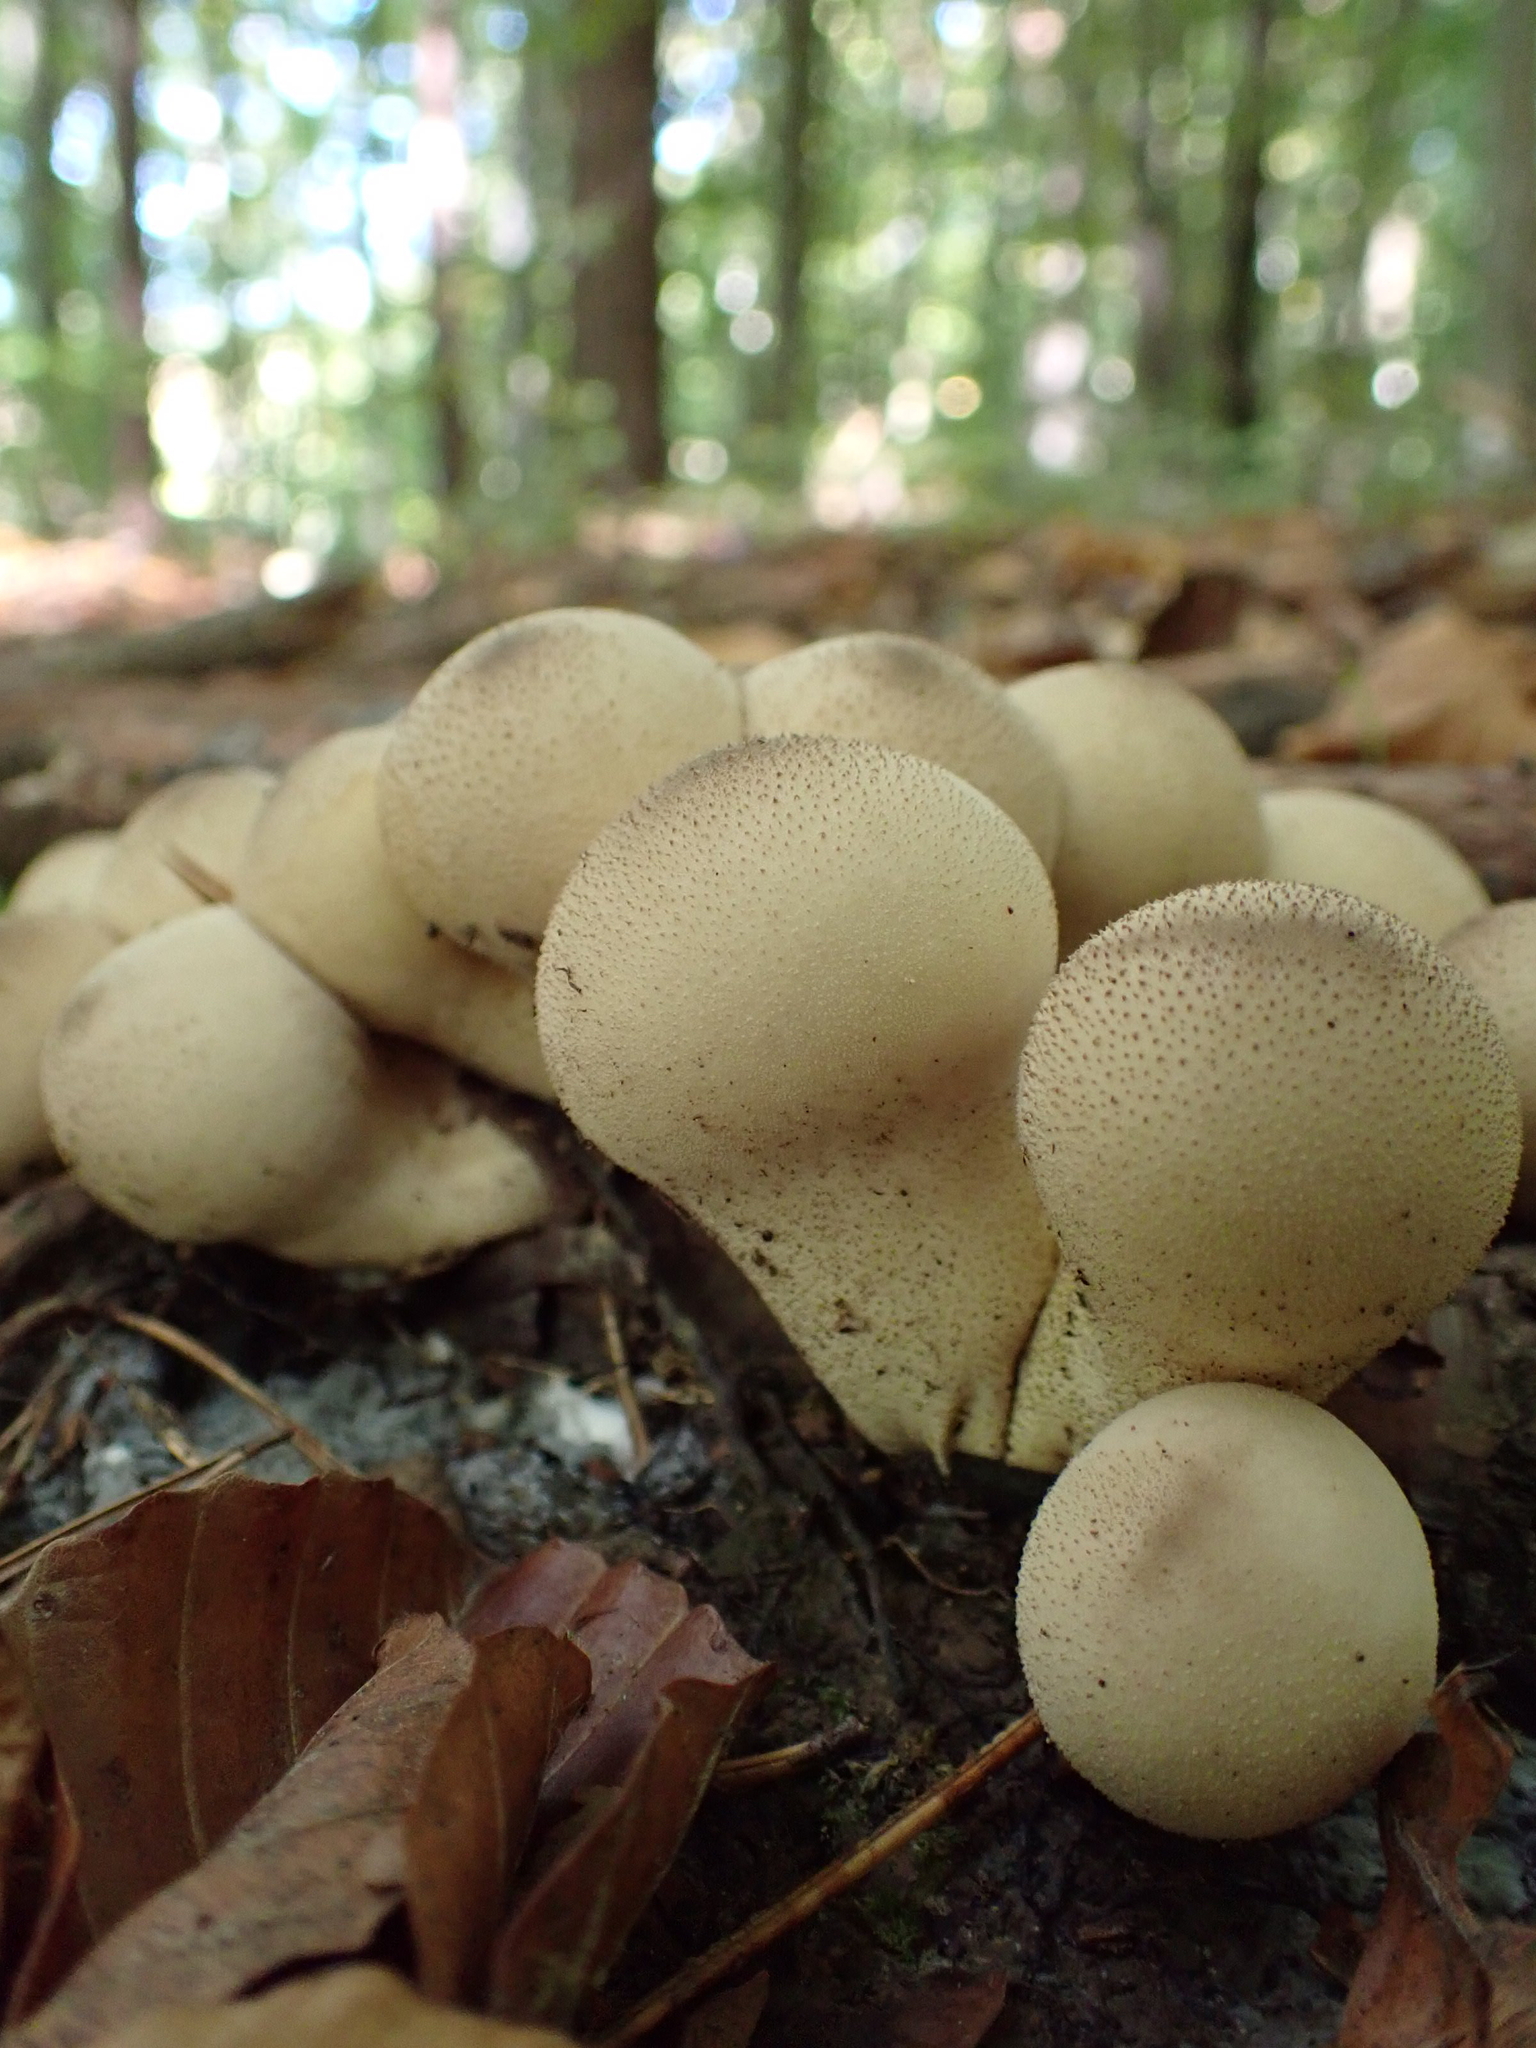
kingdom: Fungi
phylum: Basidiomycota
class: Agaricomycetes
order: Agaricales
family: Lycoperdaceae
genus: Apioperdon
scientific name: Apioperdon pyriforme
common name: Pear-shaped puffball
